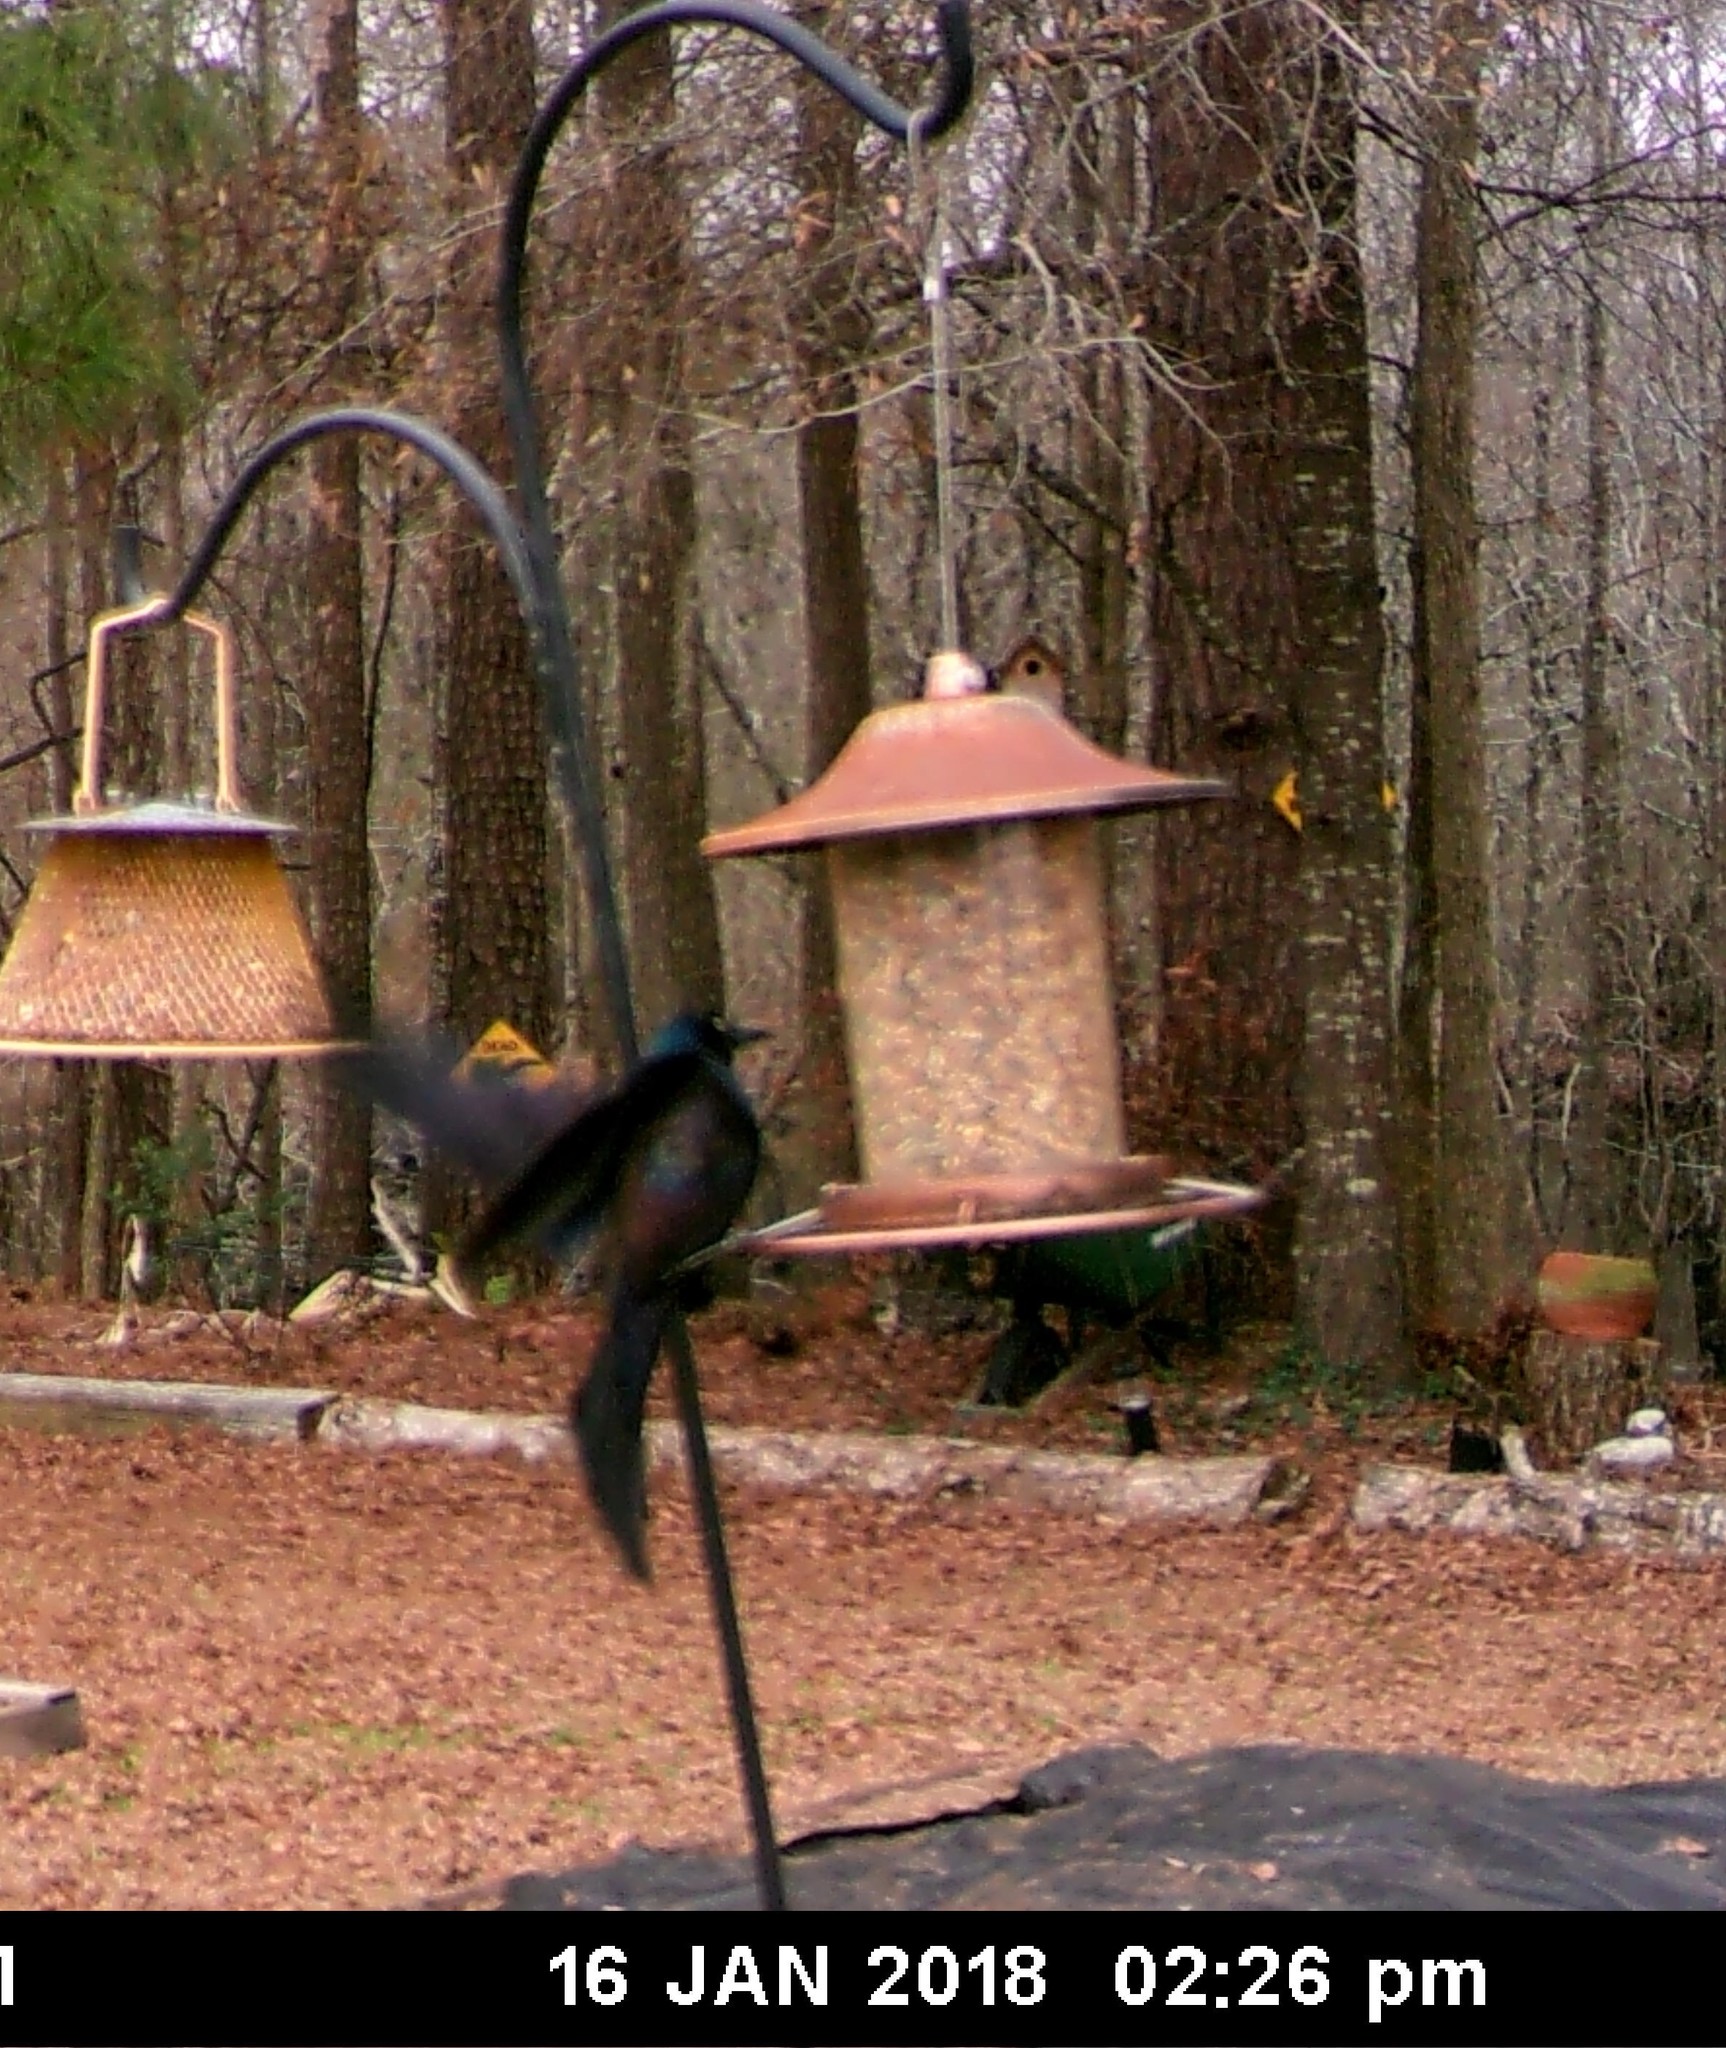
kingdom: Animalia
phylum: Chordata
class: Aves
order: Passeriformes
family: Icteridae
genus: Quiscalus
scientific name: Quiscalus quiscula
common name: Common grackle
